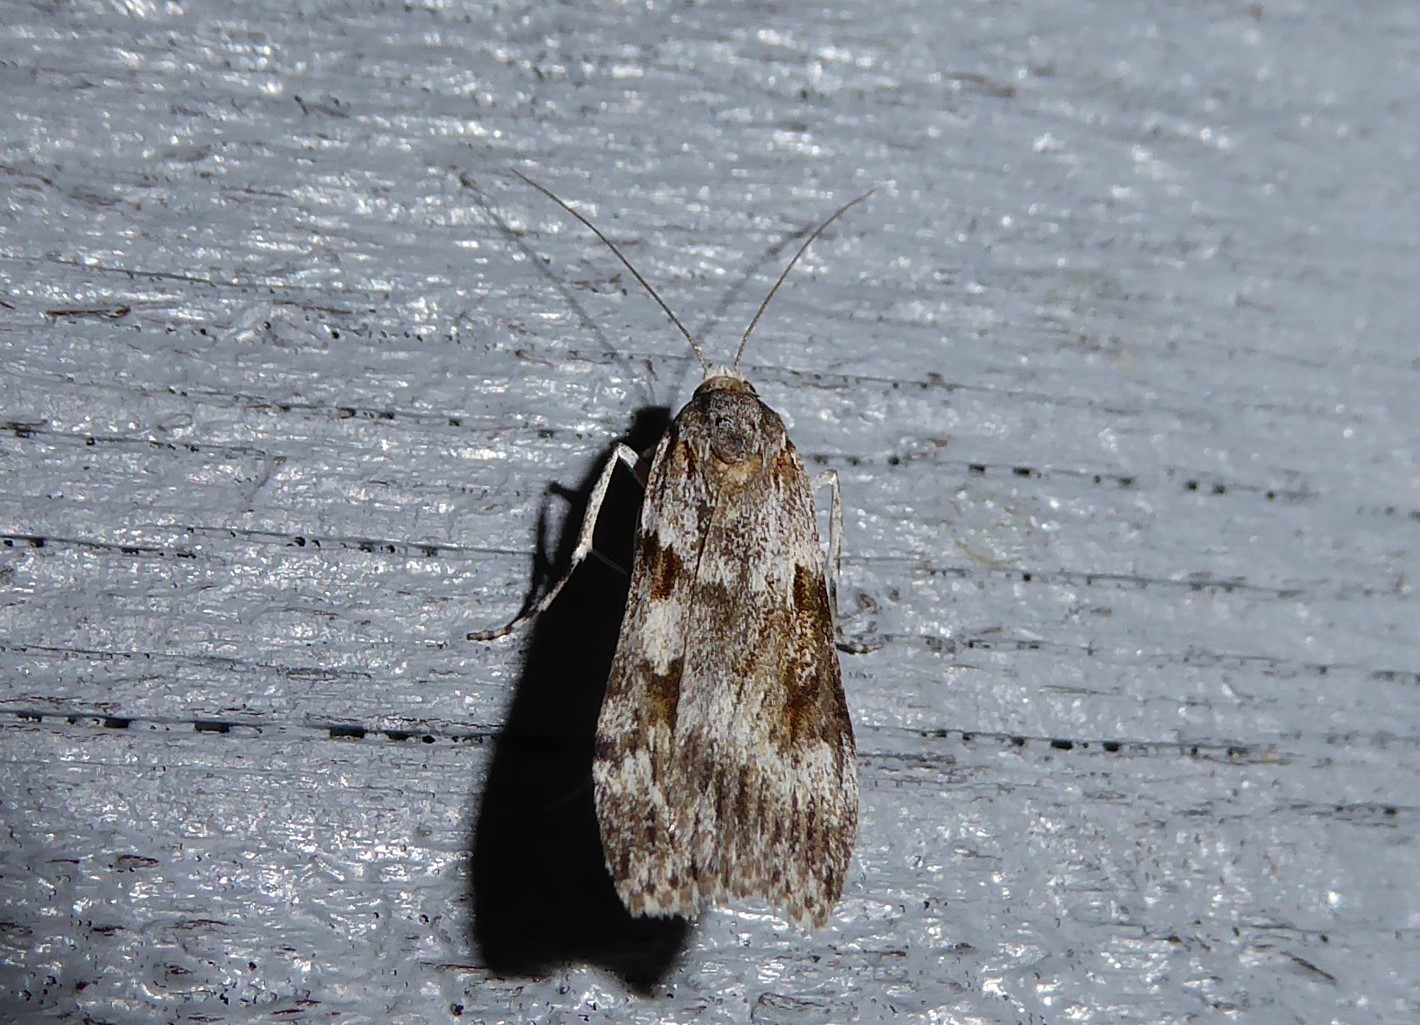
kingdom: Animalia
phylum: Arthropoda
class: Insecta
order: Lepidoptera
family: Crambidae
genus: Scoparia
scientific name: Scoparia halopis
